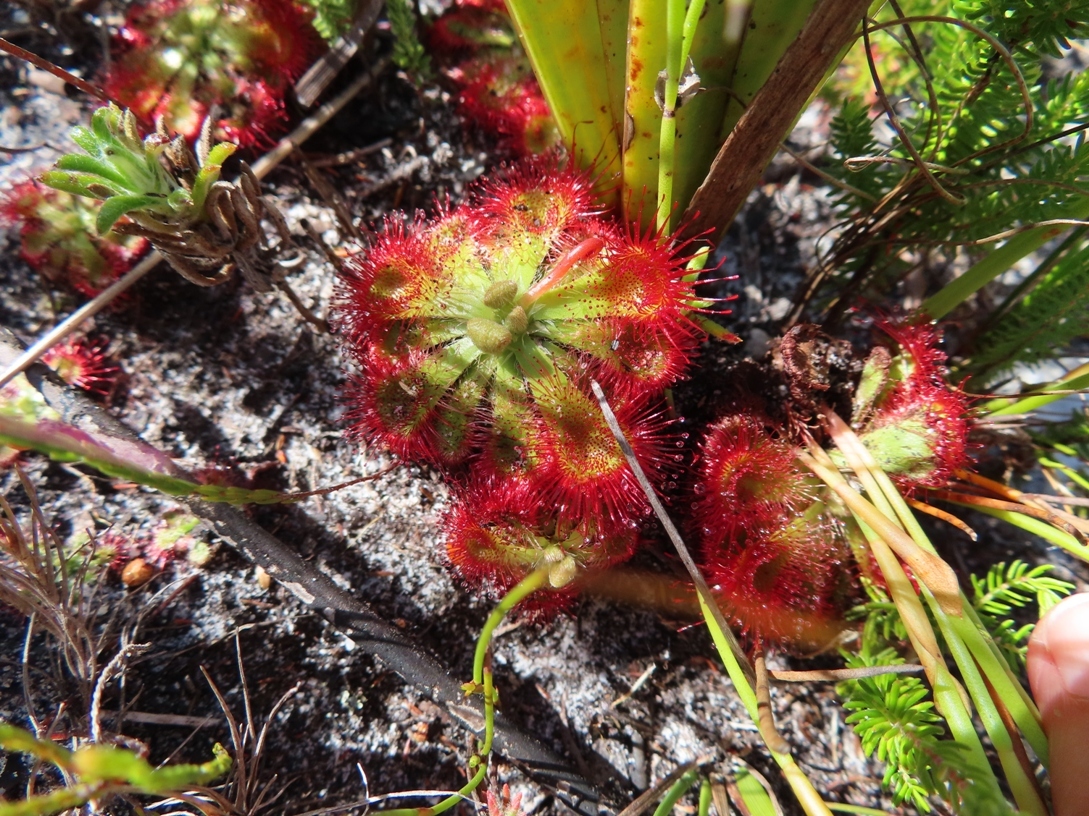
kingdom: Plantae
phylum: Tracheophyta
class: Magnoliopsida
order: Caryophyllales
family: Droseraceae
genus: Drosera
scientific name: Drosera xerophila
